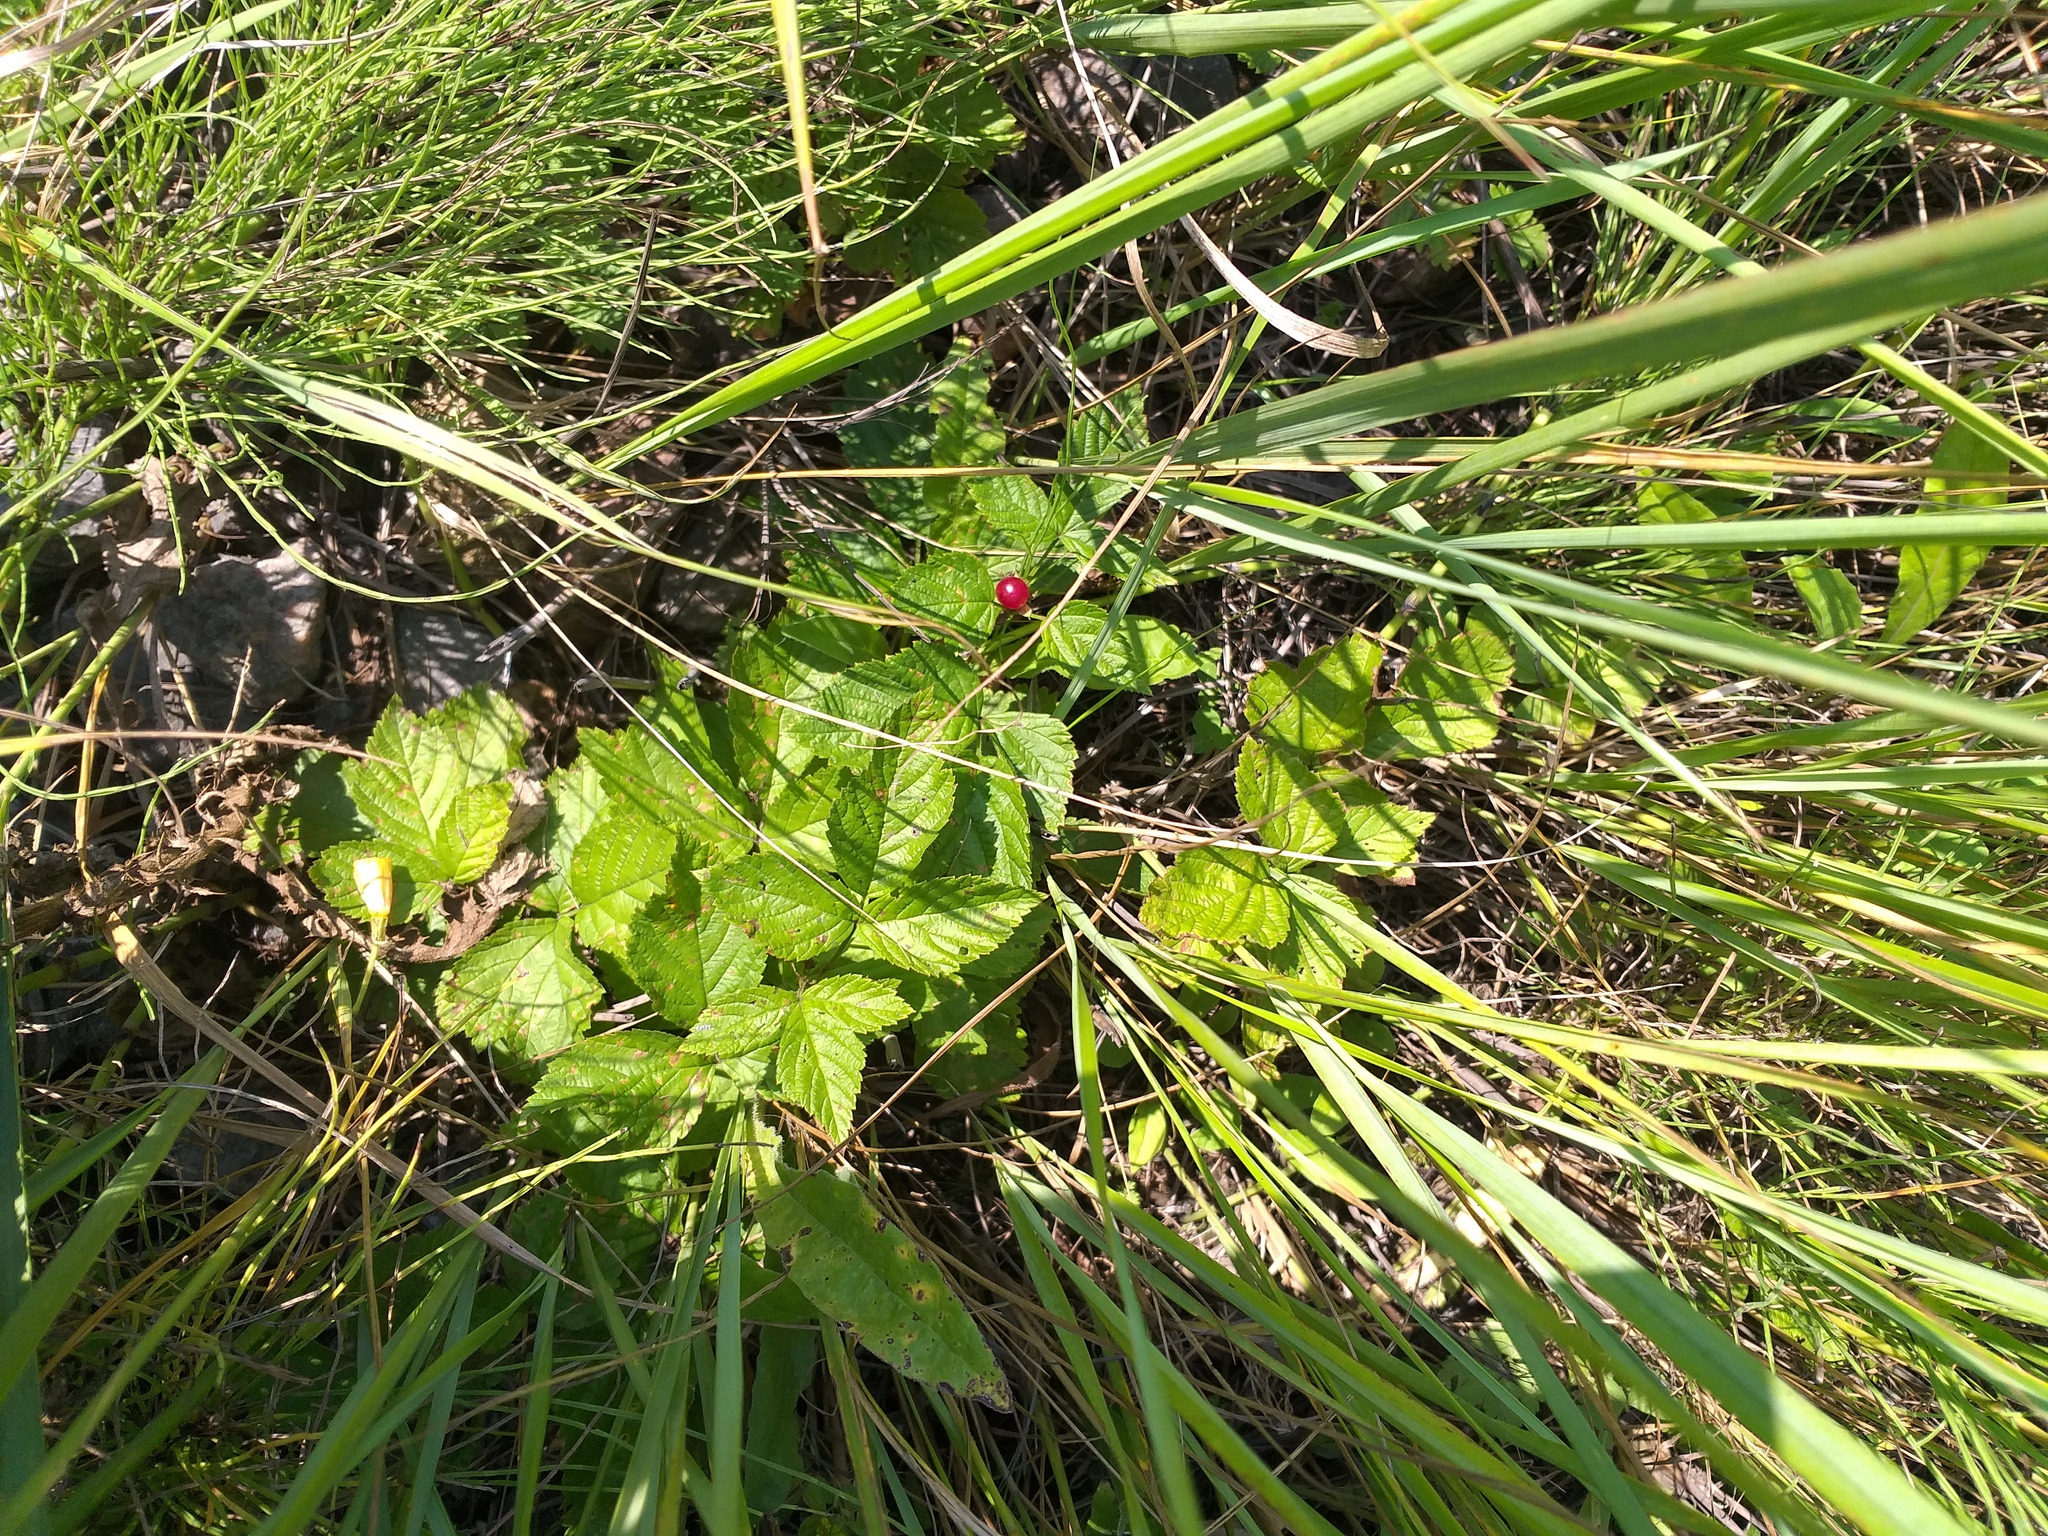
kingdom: Plantae
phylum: Tracheophyta
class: Magnoliopsida
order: Rosales
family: Rosaceae
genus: Rubus
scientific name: Rubus saxatilis
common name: Stone bramble
